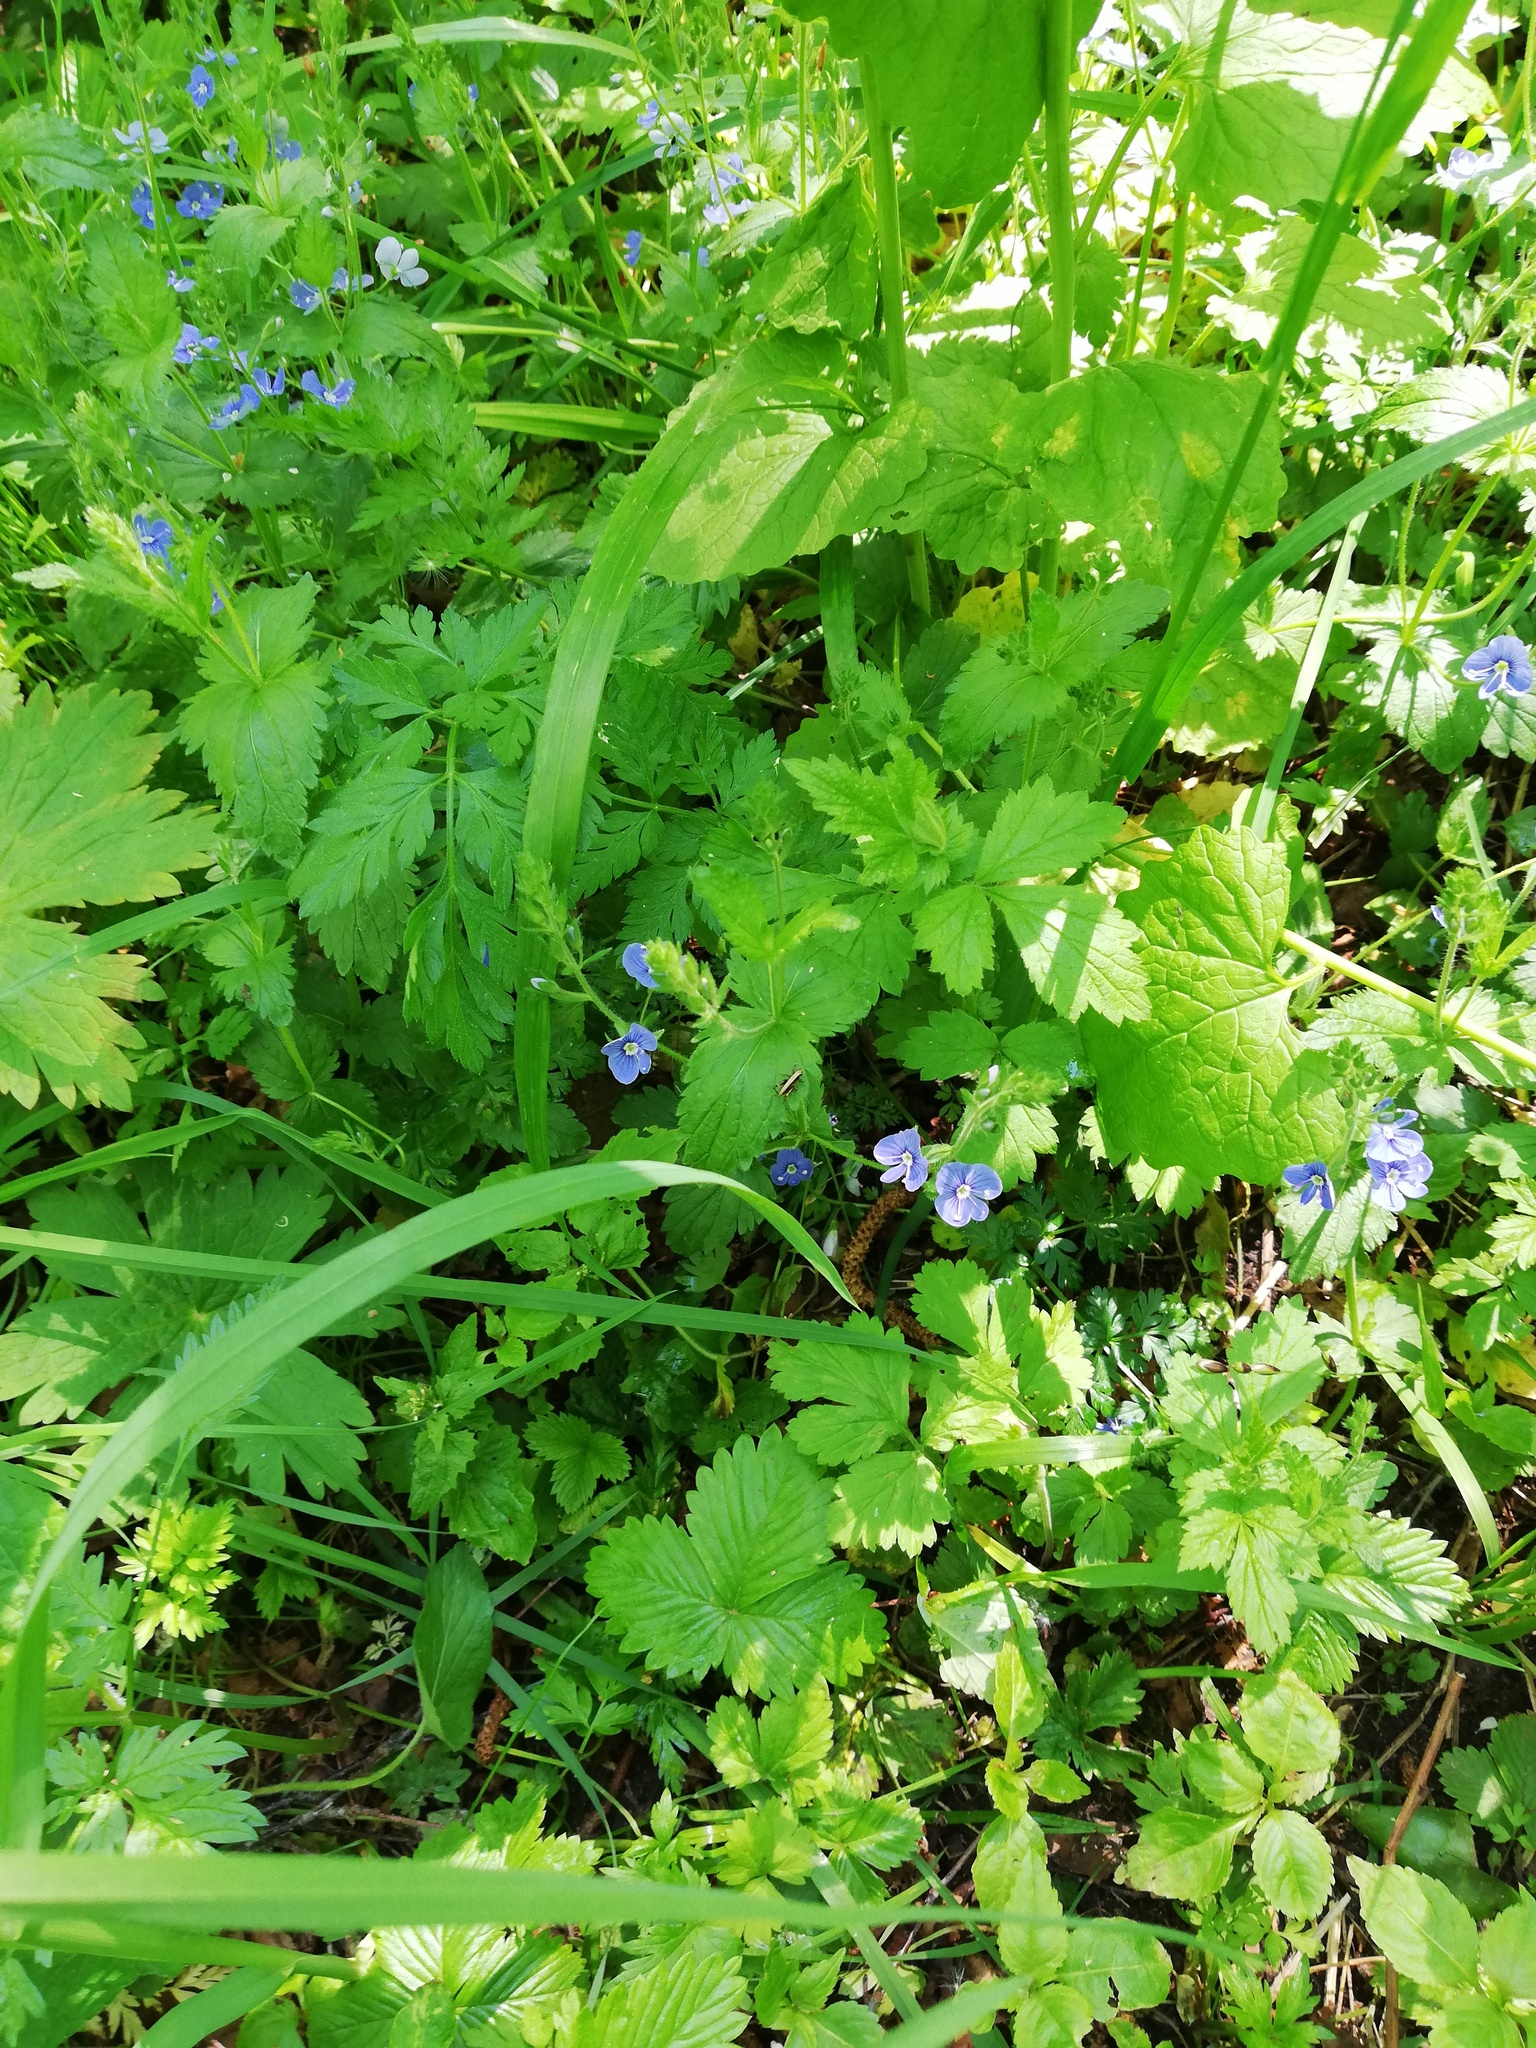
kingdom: Plantae
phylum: Tracheophyta
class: Magnoliopsida
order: Lamiales
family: Plantaginaceae
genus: Veronica
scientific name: Veronica chamaedrys
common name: Germander speedwell
